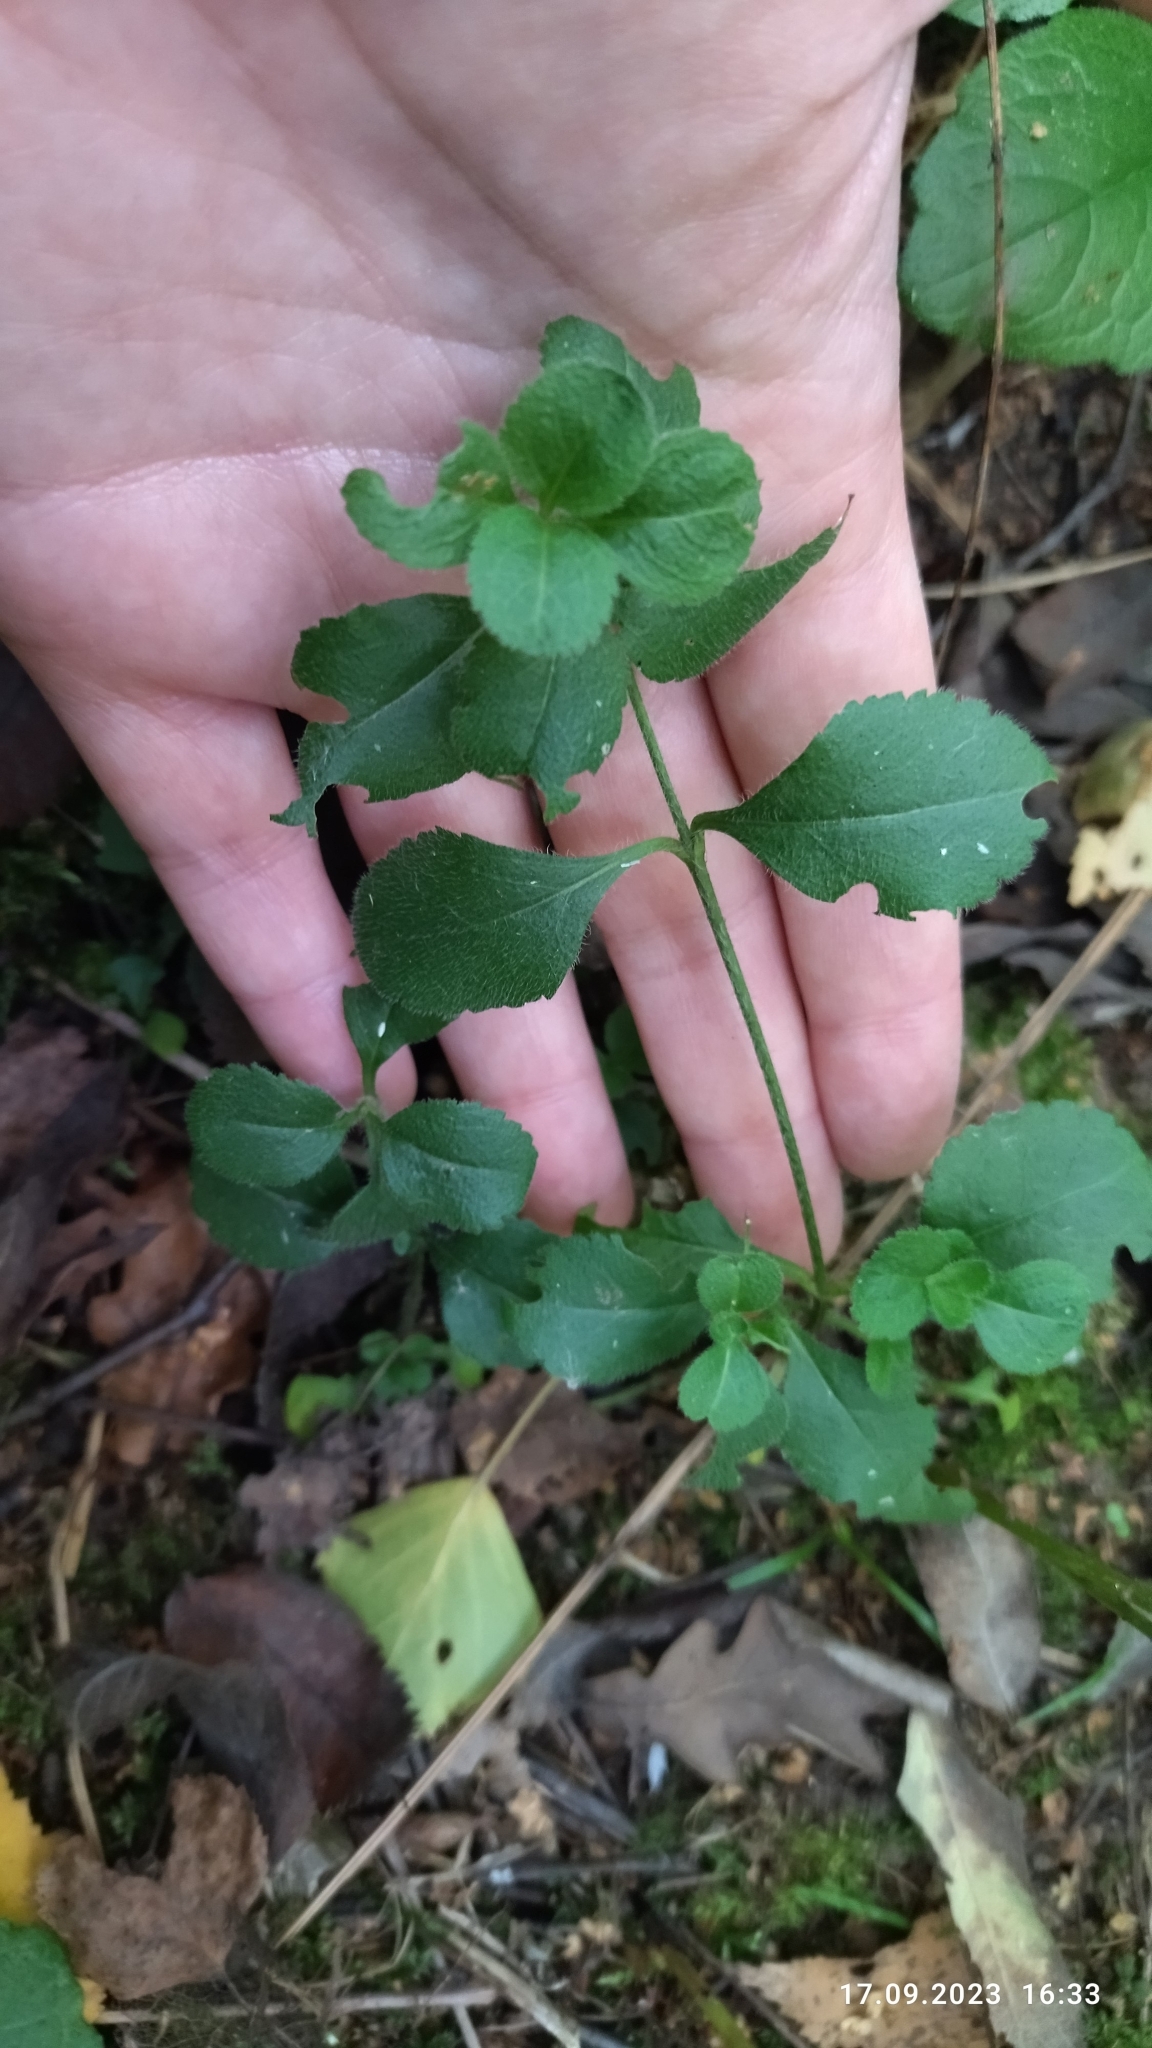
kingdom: Plantae
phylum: Tracheophyta
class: Magnoliopsida
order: Lamiales
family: Plantaginaceae
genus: Veronica
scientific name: Veronica officinalis
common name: Common speedwell
